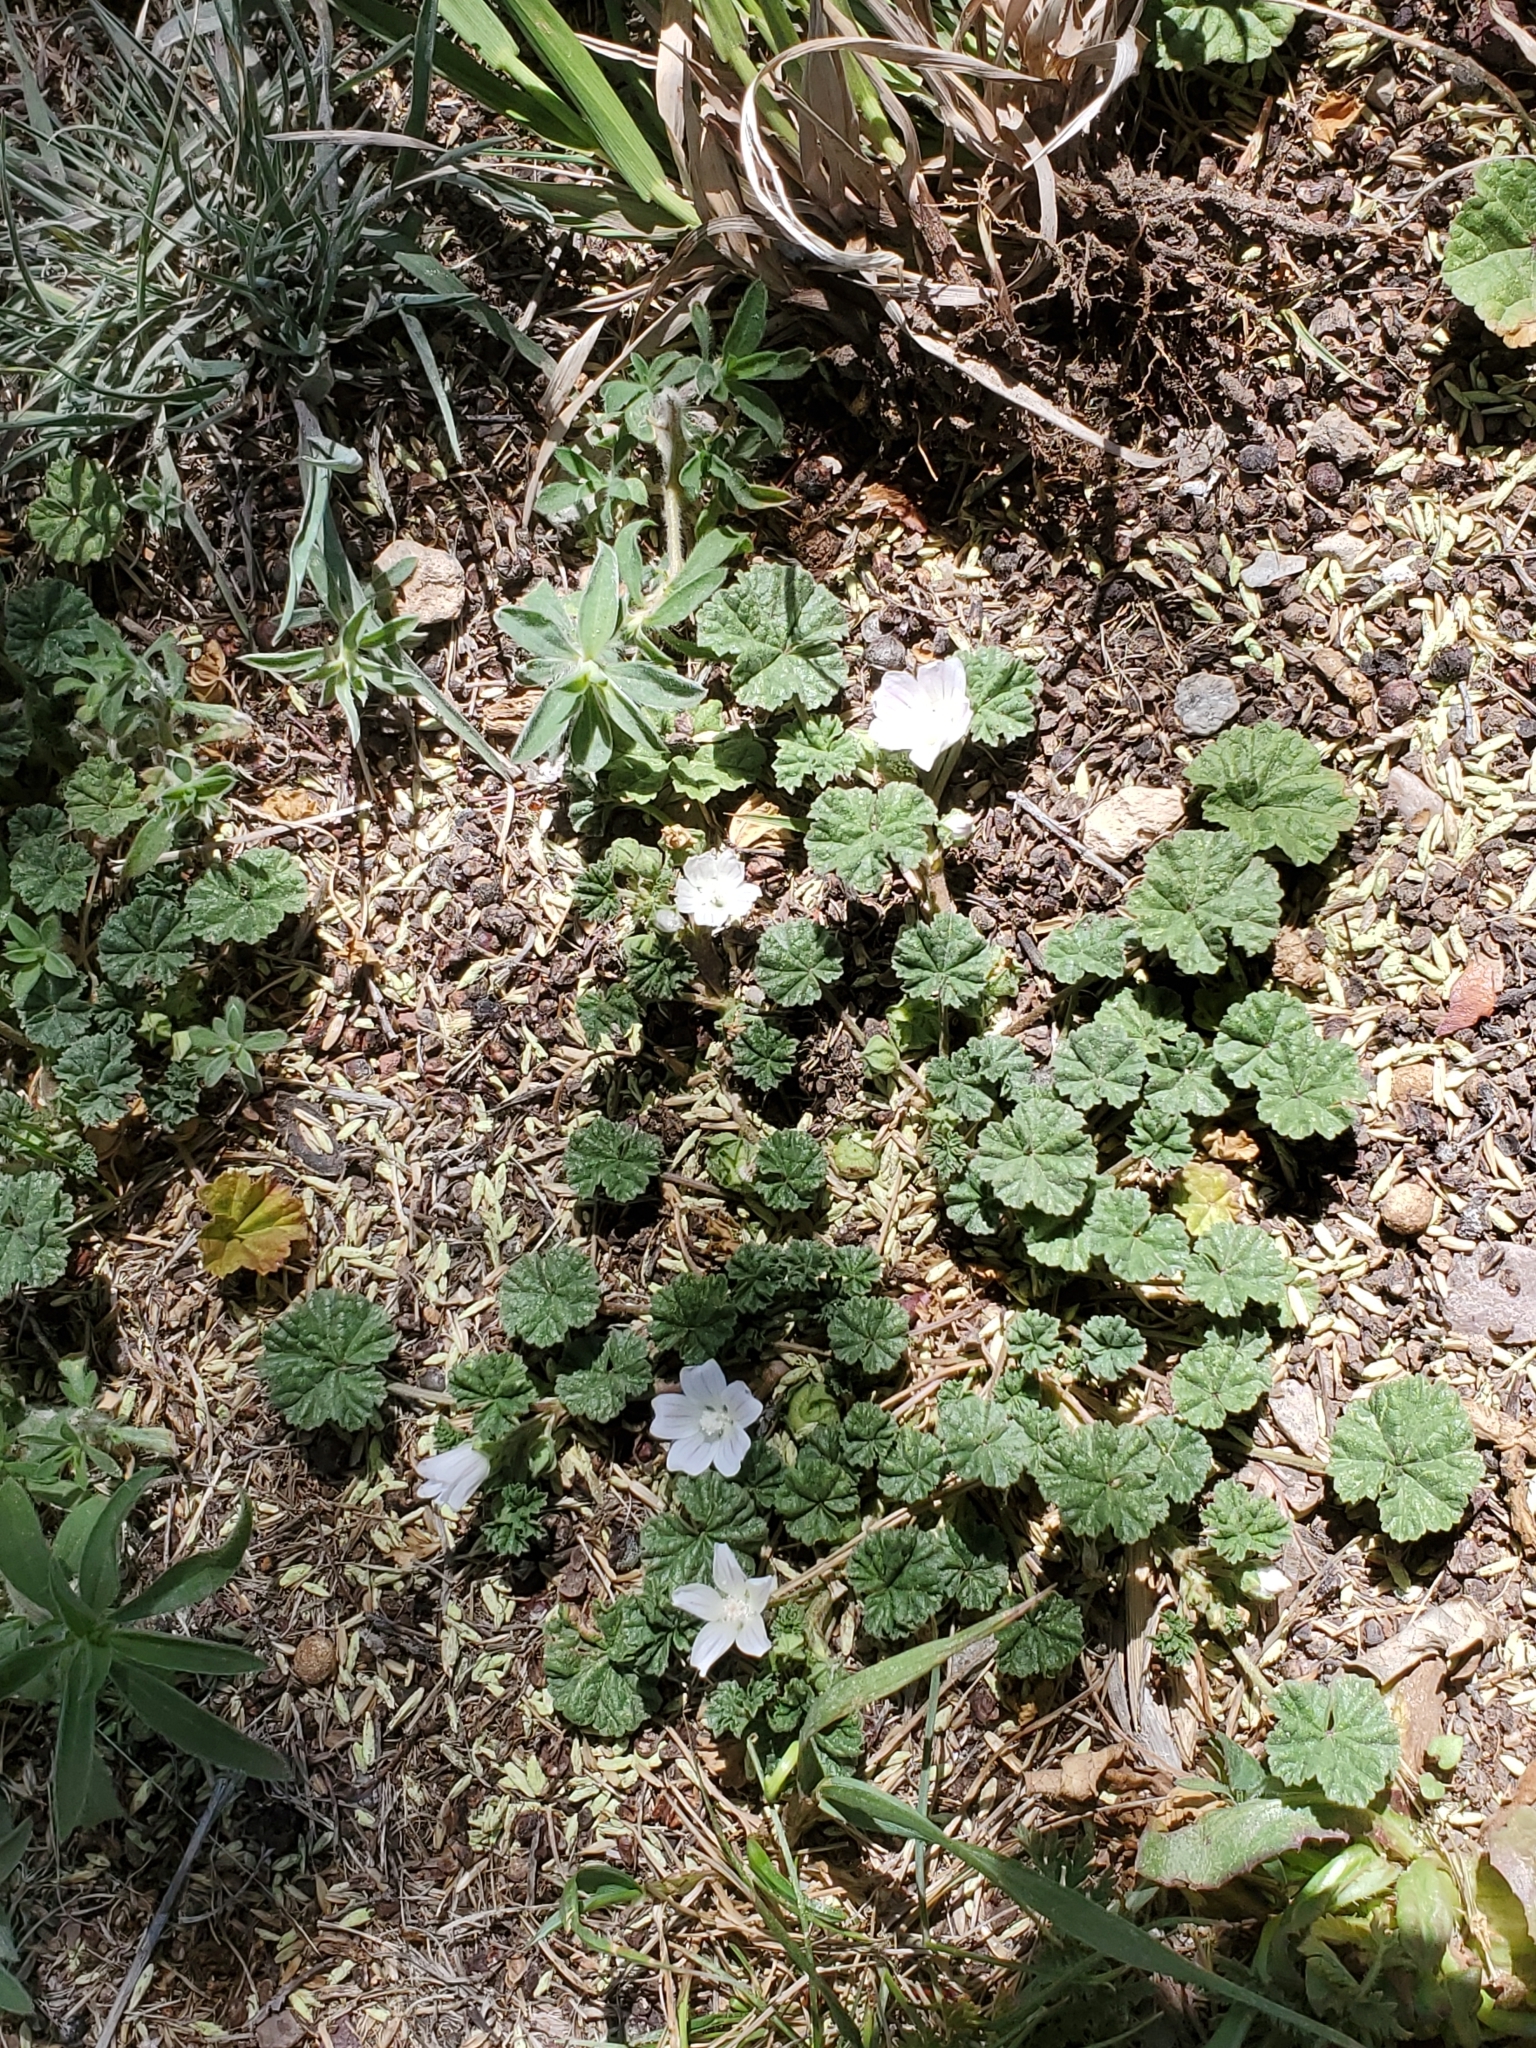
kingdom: Plantae
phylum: Tracheophyta
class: Magnoliopsida
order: Malvales
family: Malvaceae
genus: Malva
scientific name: Malva neglecta
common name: Common mallow
